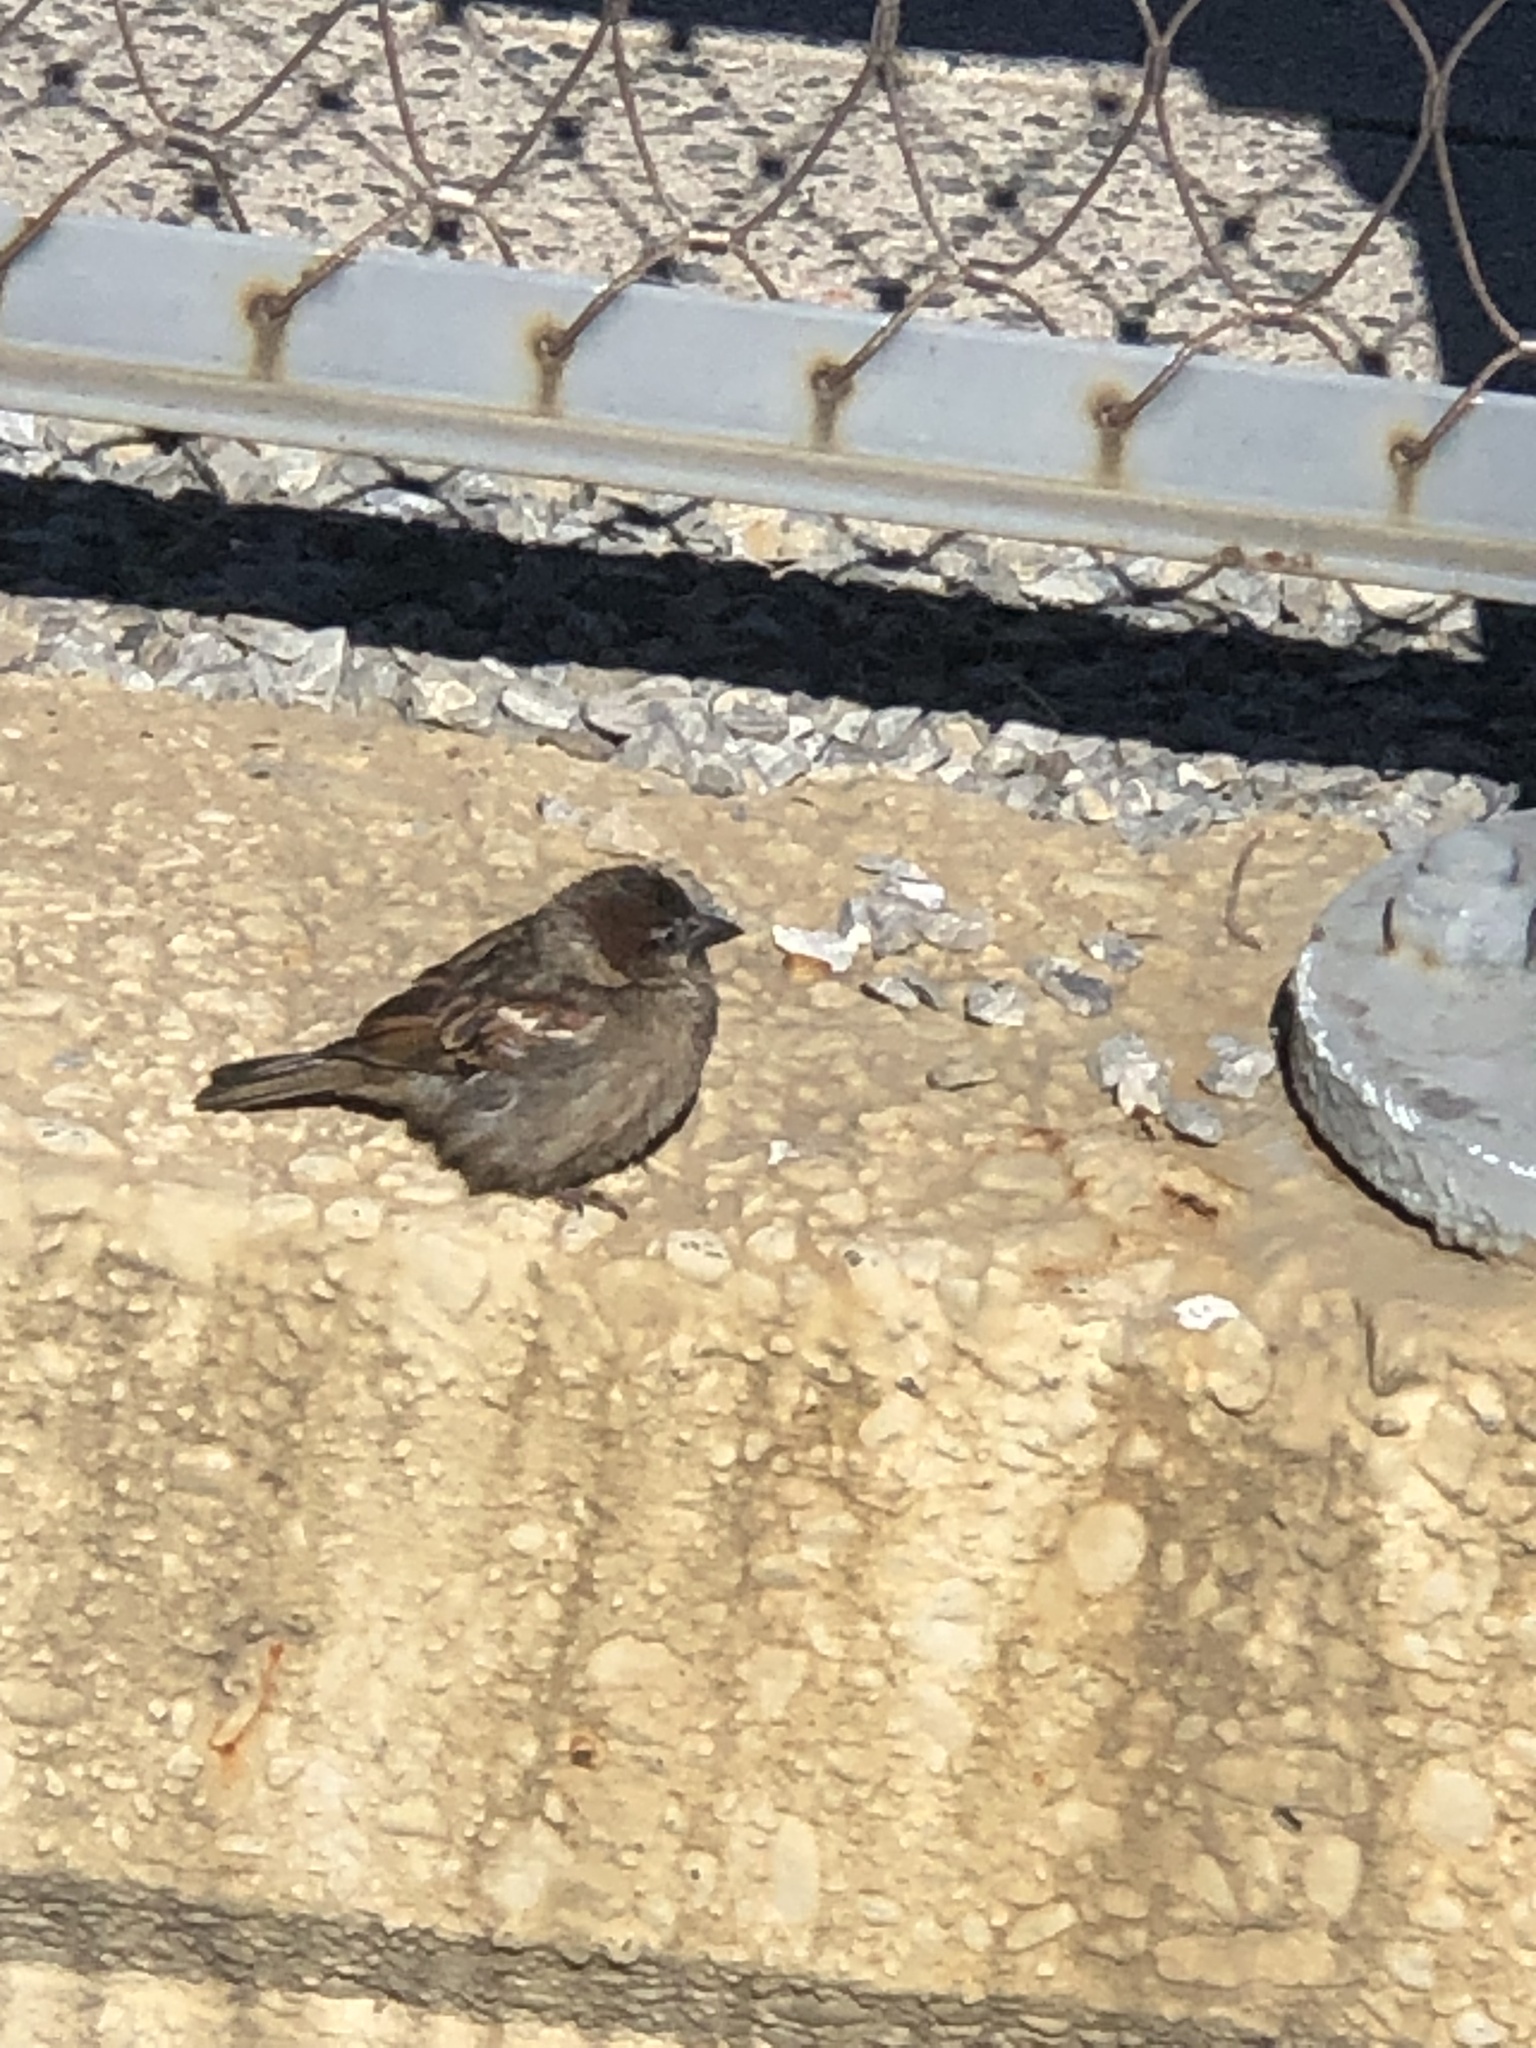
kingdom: Animalia
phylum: Chordata
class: Aves
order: Passeriformes
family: Passeridae
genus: Passer
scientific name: Passer domesticus
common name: House sparrow
